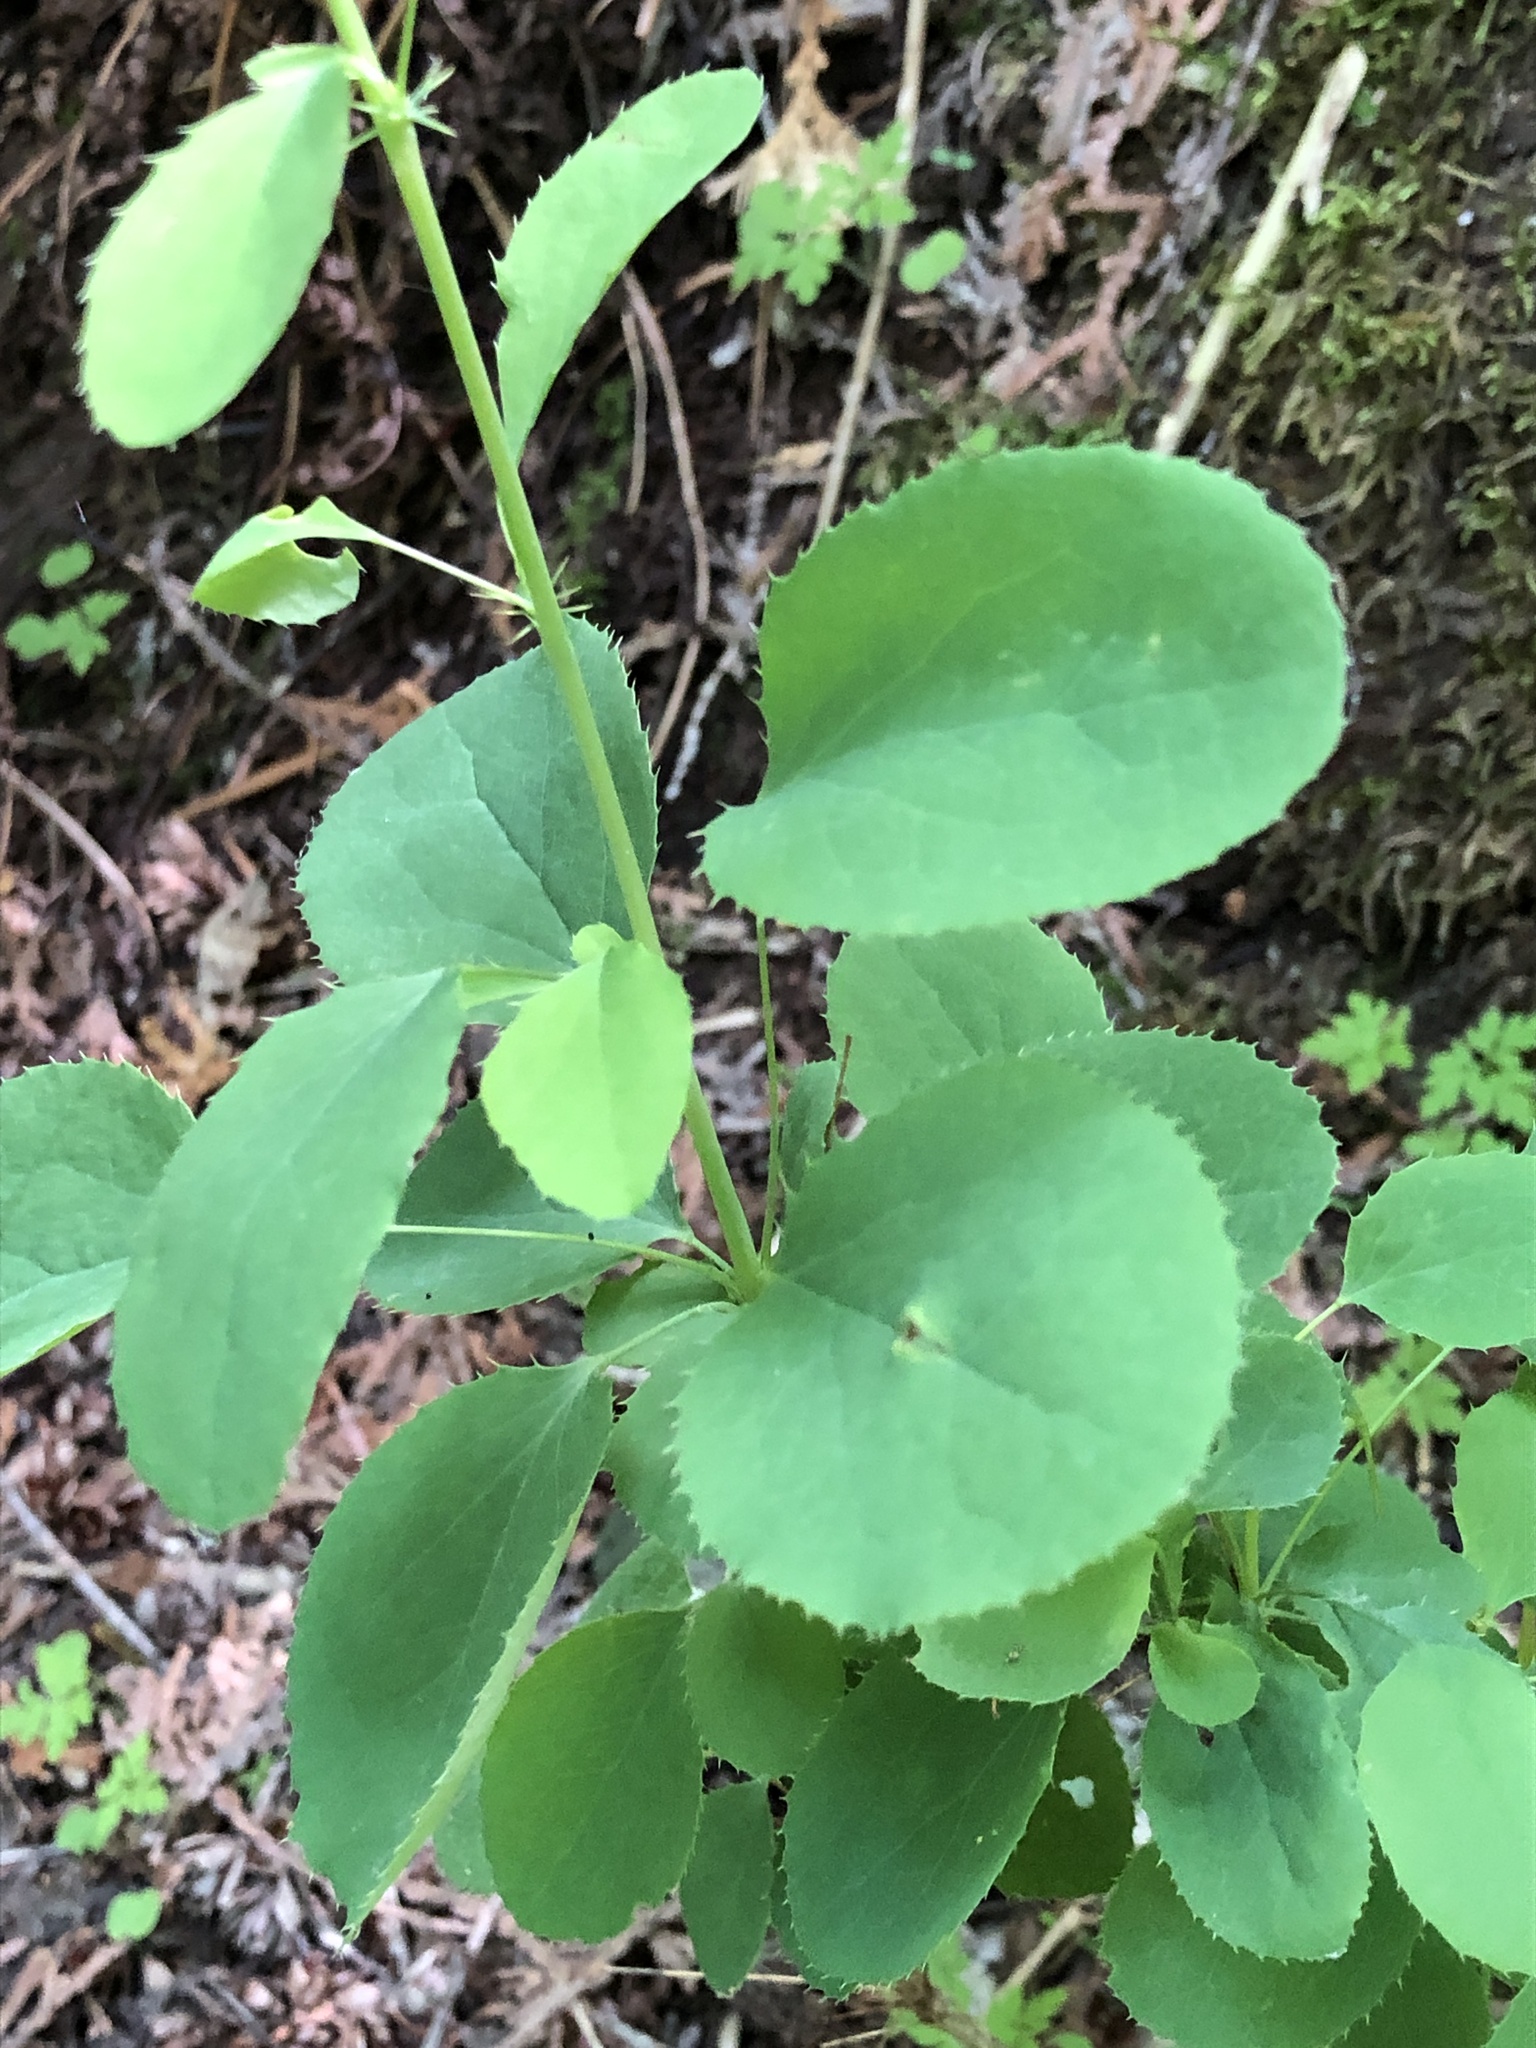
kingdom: Plantae
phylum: Tracheophyta
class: Magnoliopsida
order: Ranunculales
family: Berberidaceae
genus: Berberis
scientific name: Berberis vulgaris
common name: Barberry
